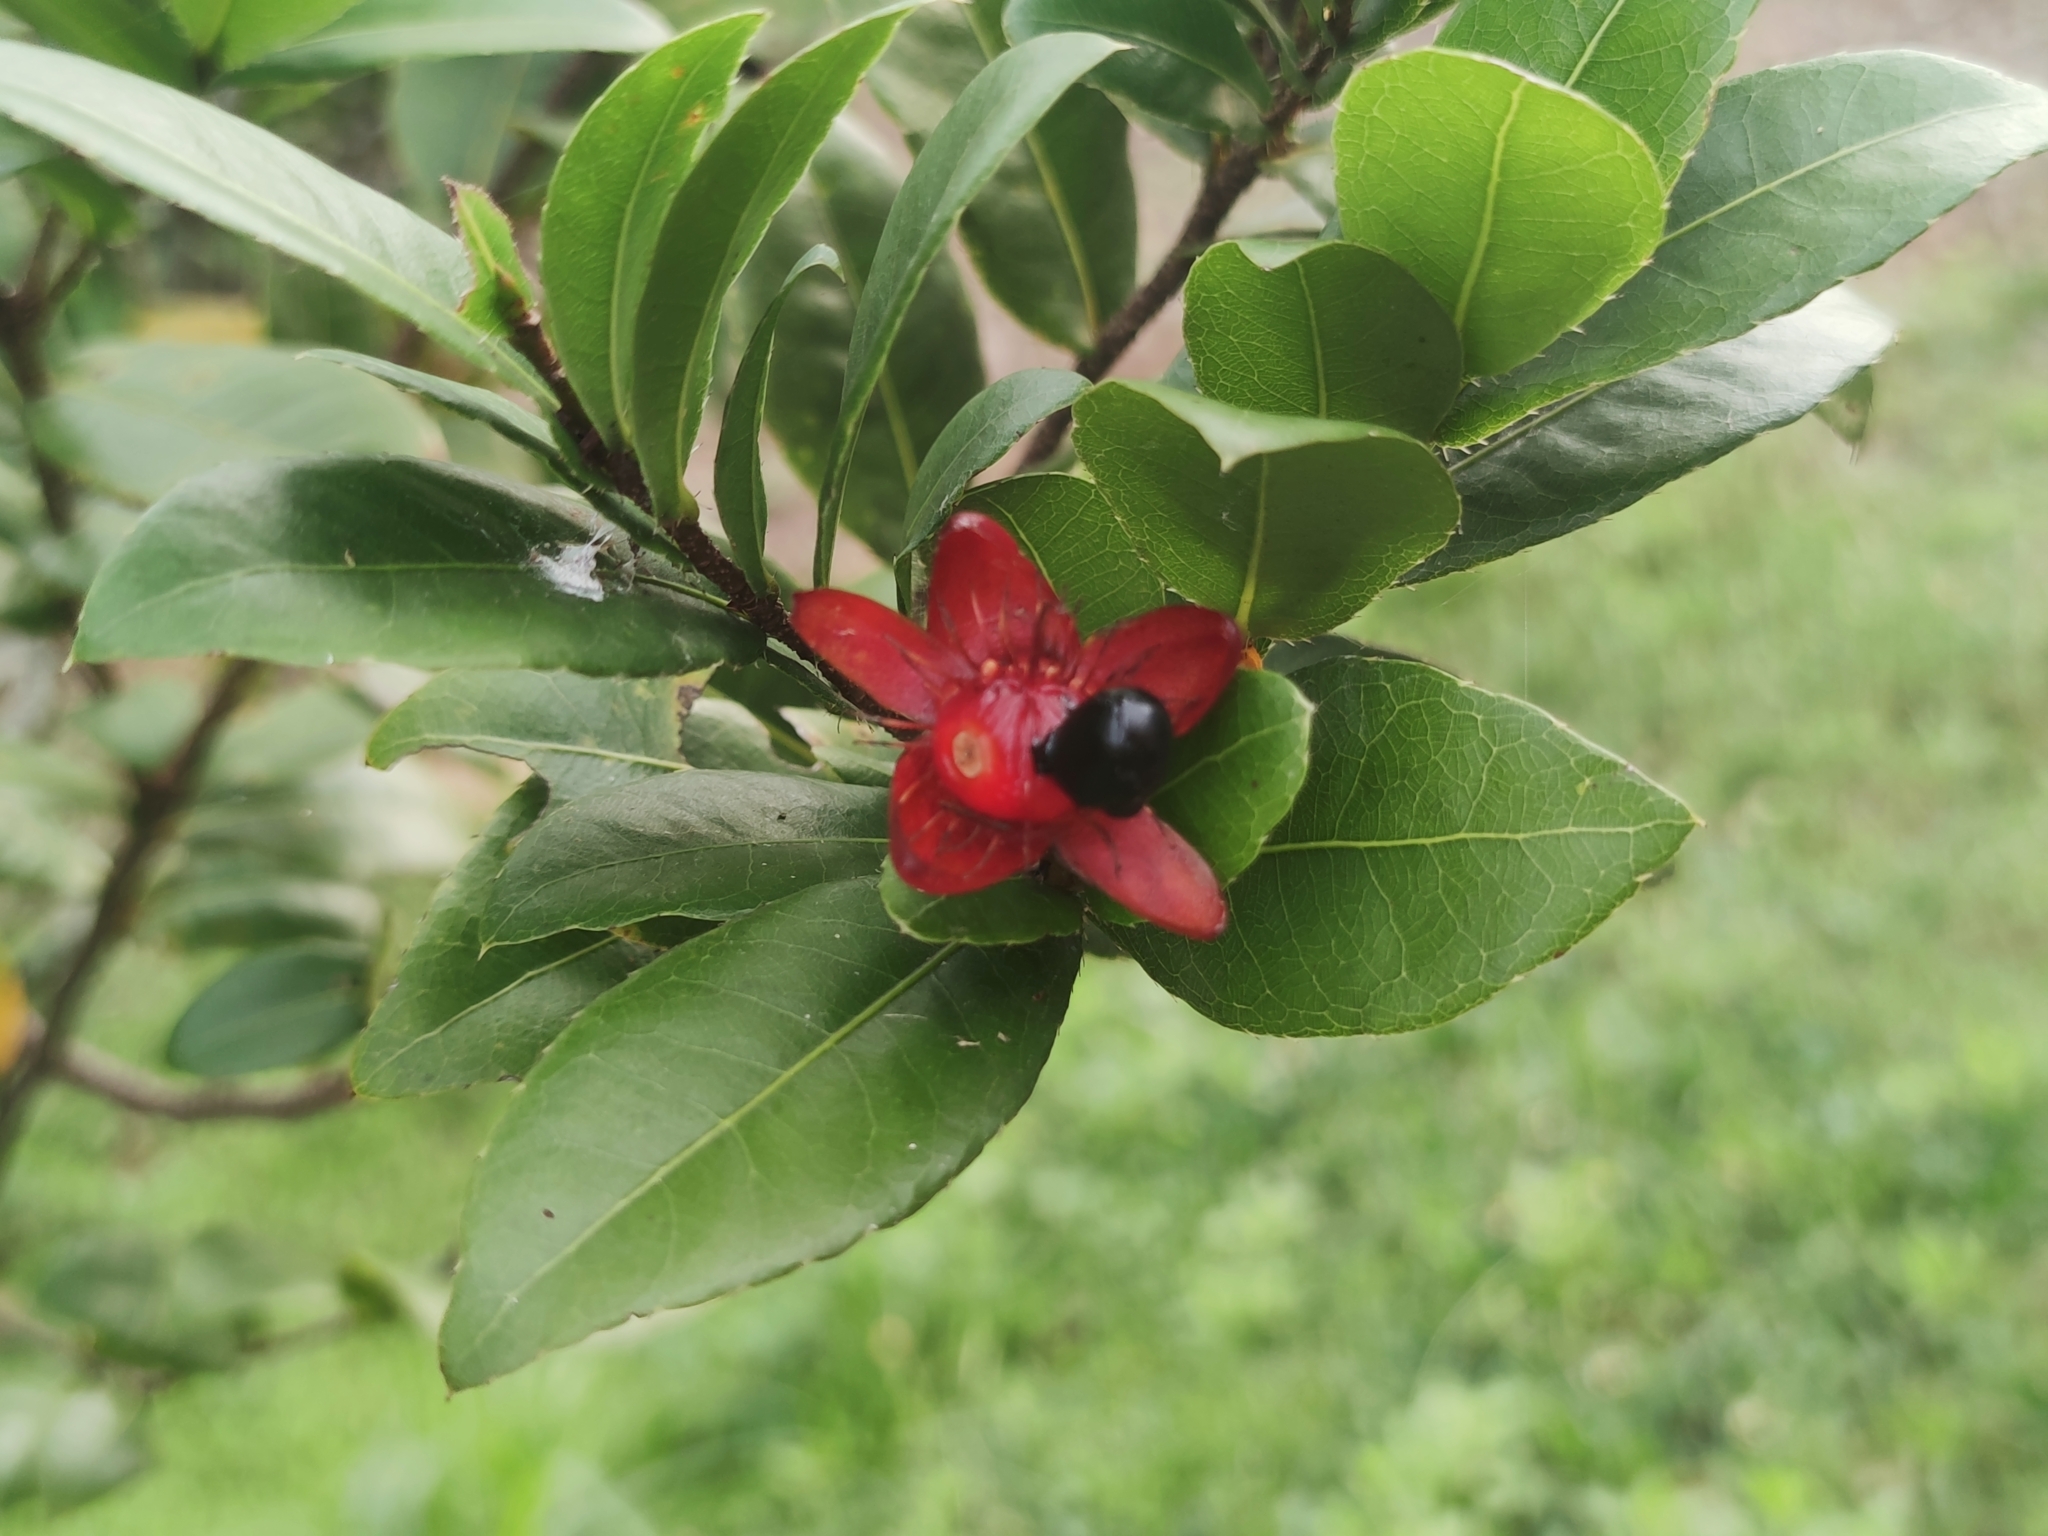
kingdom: Plantae
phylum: Tracheophyta
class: Magnoliopsida
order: Malpighiales
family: Ochnaceae
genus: Ochna
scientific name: Ochna serrulata
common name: Mickey mouse plant
